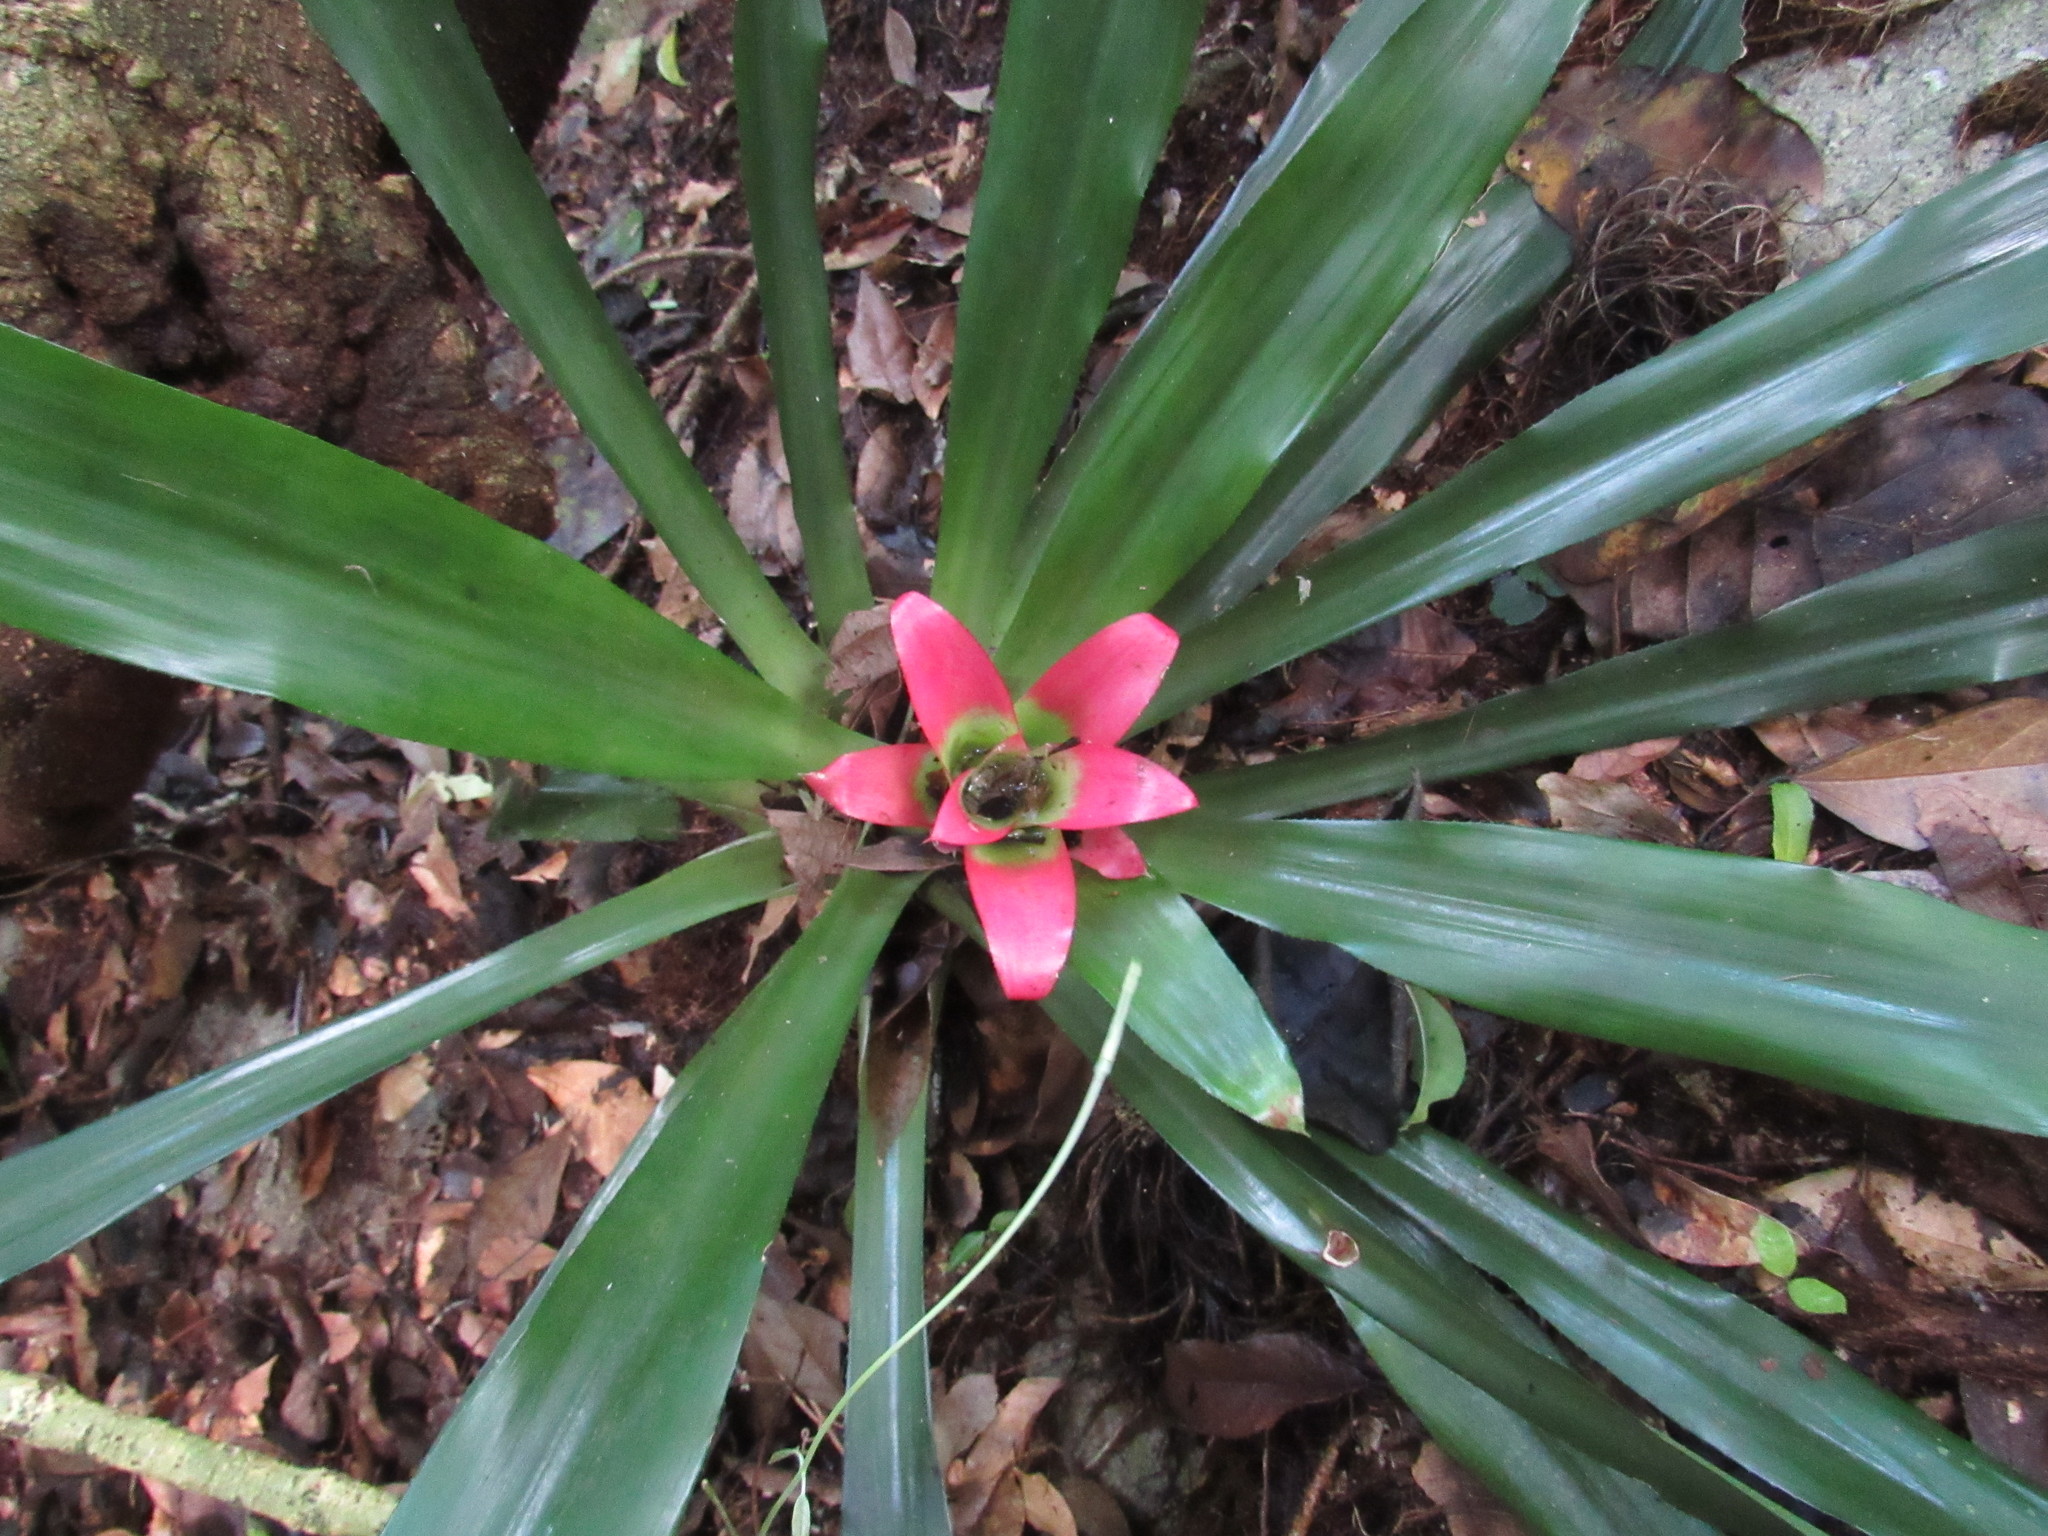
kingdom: Plantae
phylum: Tracheophyta
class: Liliopsida
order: Poales
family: Bromeliaceae
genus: Nidularium
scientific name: Nidularium innocentii
